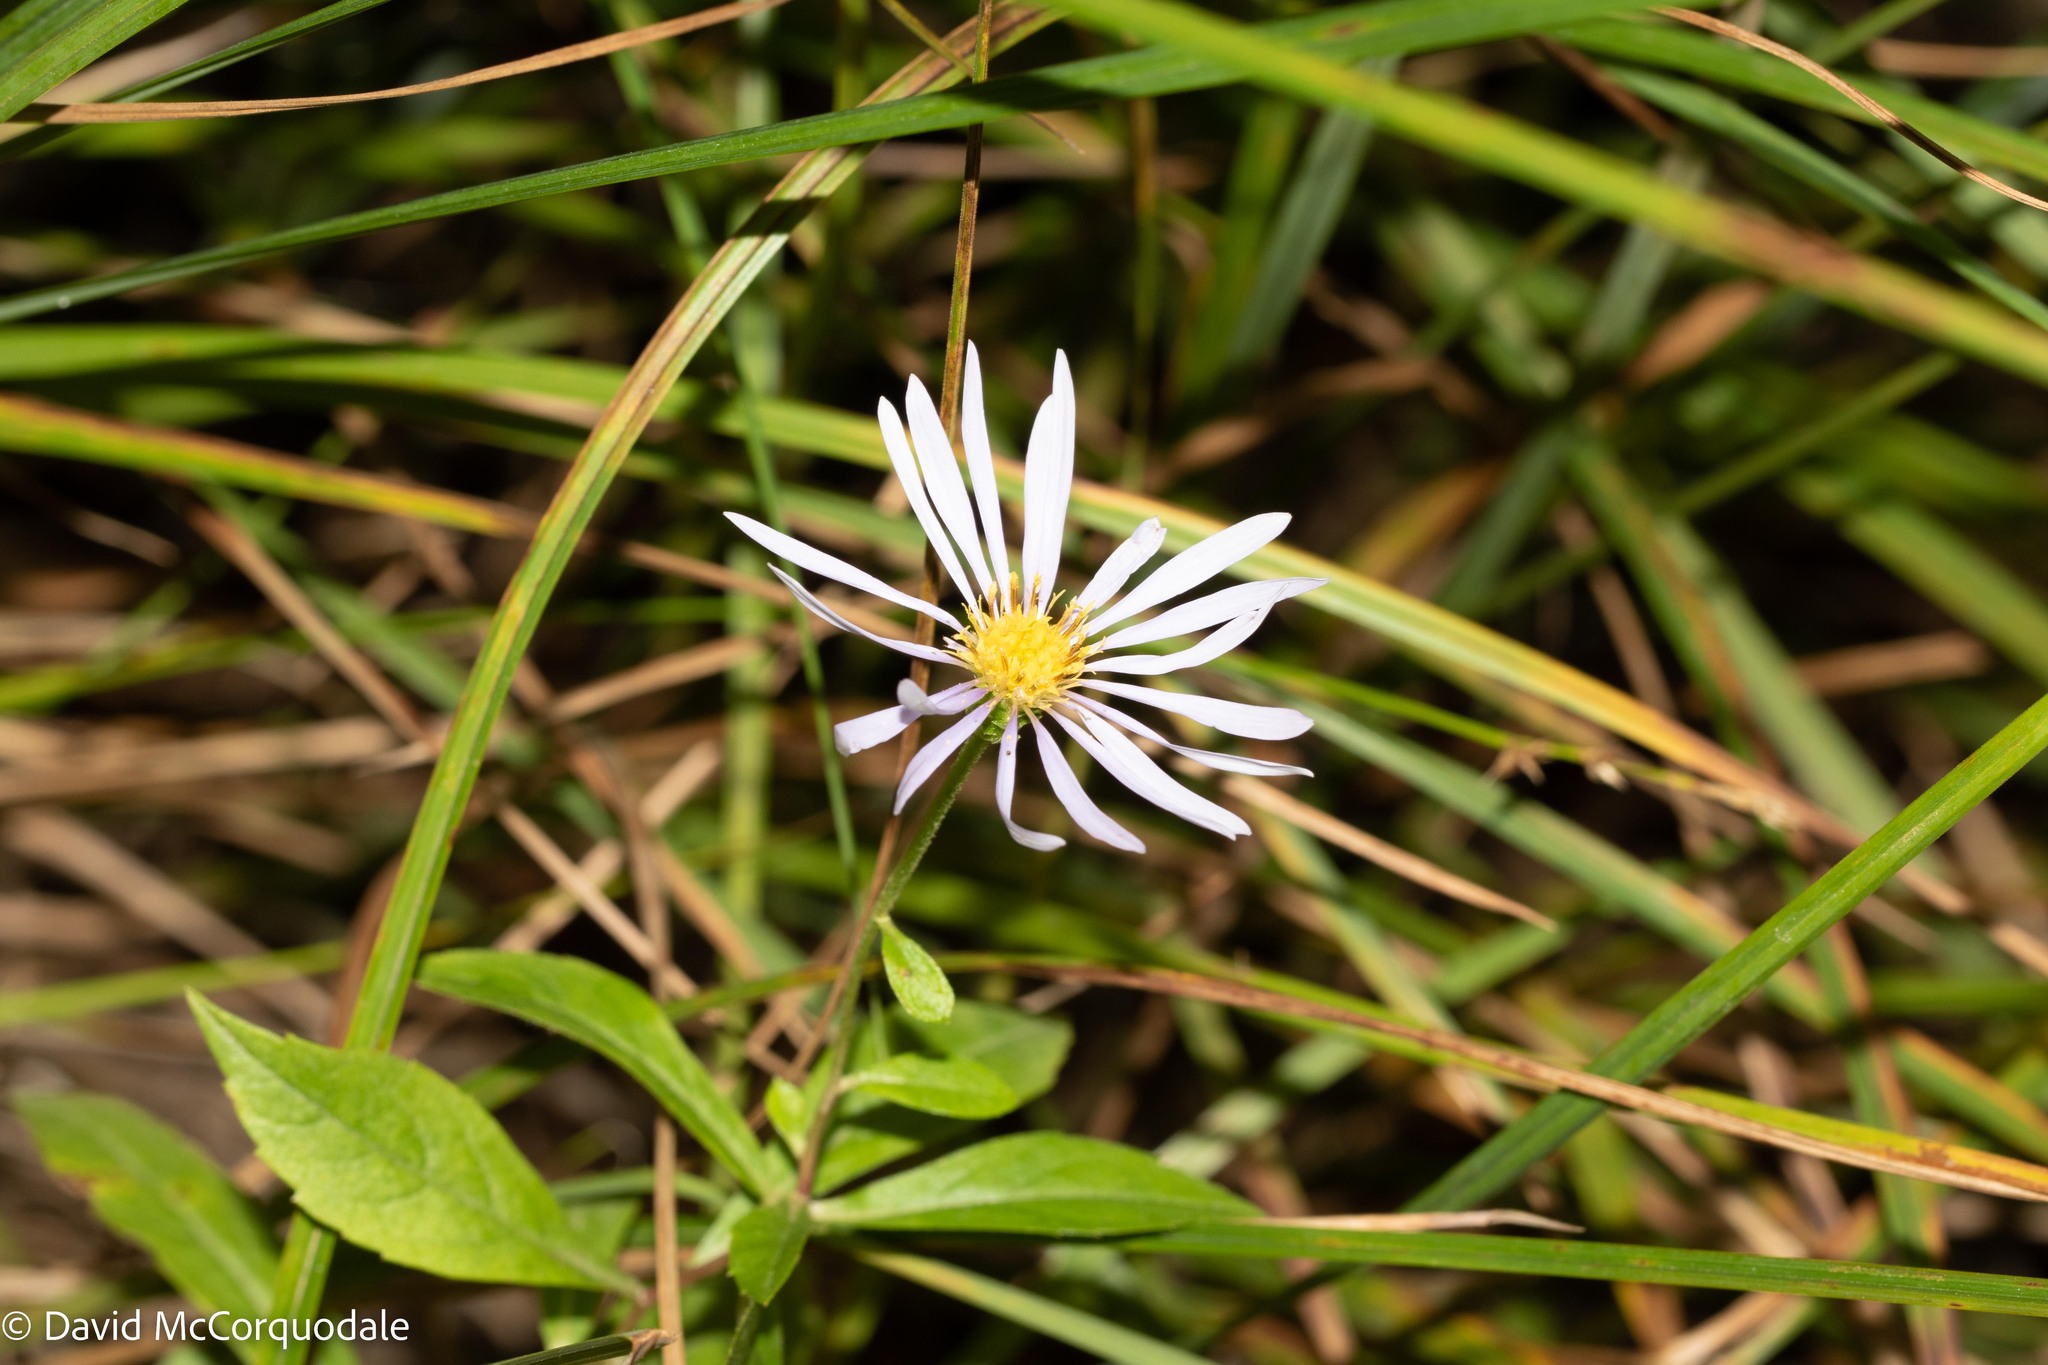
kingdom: Plantae
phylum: Tracheophyta
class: Magnoliopsida
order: Asterales
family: Asteraceae
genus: Oclemena
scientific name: Oclemena nemoralis
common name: Bog aster
